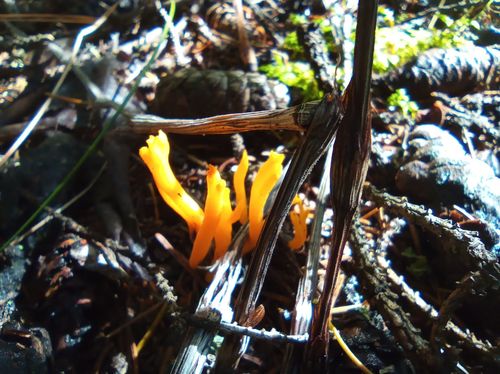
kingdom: Fungi
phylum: Basidiomycota
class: Dacrymycetes
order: Dacrymycetales
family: Dacrymycetaceae
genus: Calocera
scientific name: Calocera viscosa
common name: Yellow stagshorn
